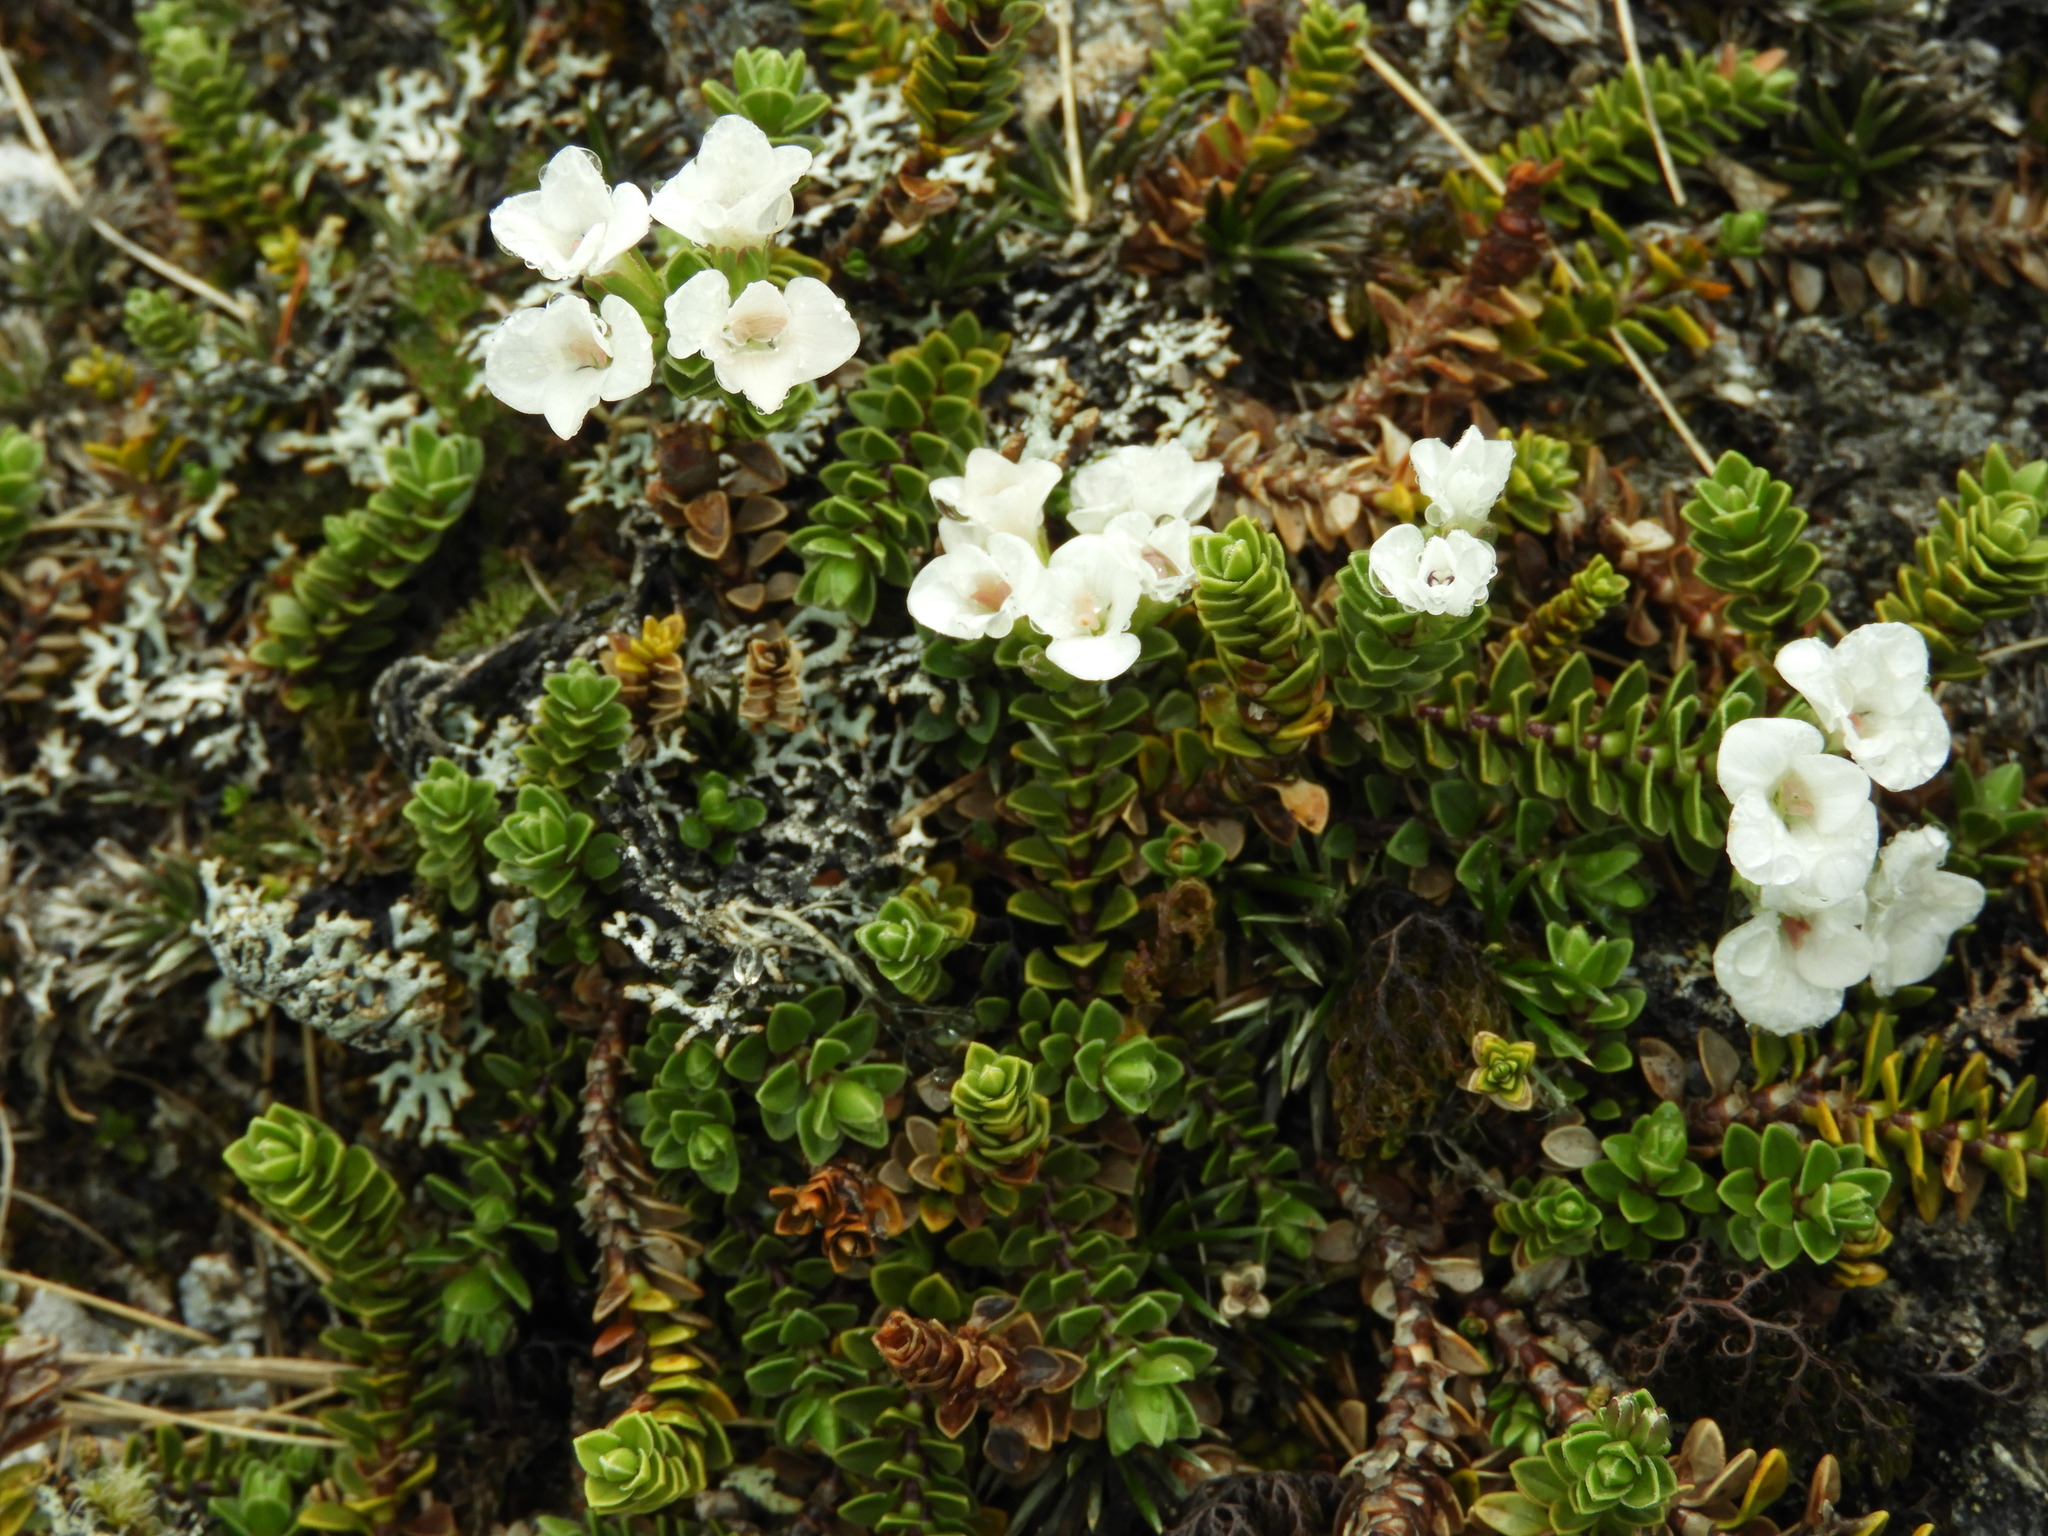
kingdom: Plantae
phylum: Tracheophyta
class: Magnoliopsida
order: Lamiales
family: Plantaginaceae
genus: Veronica
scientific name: Veronica notialis
